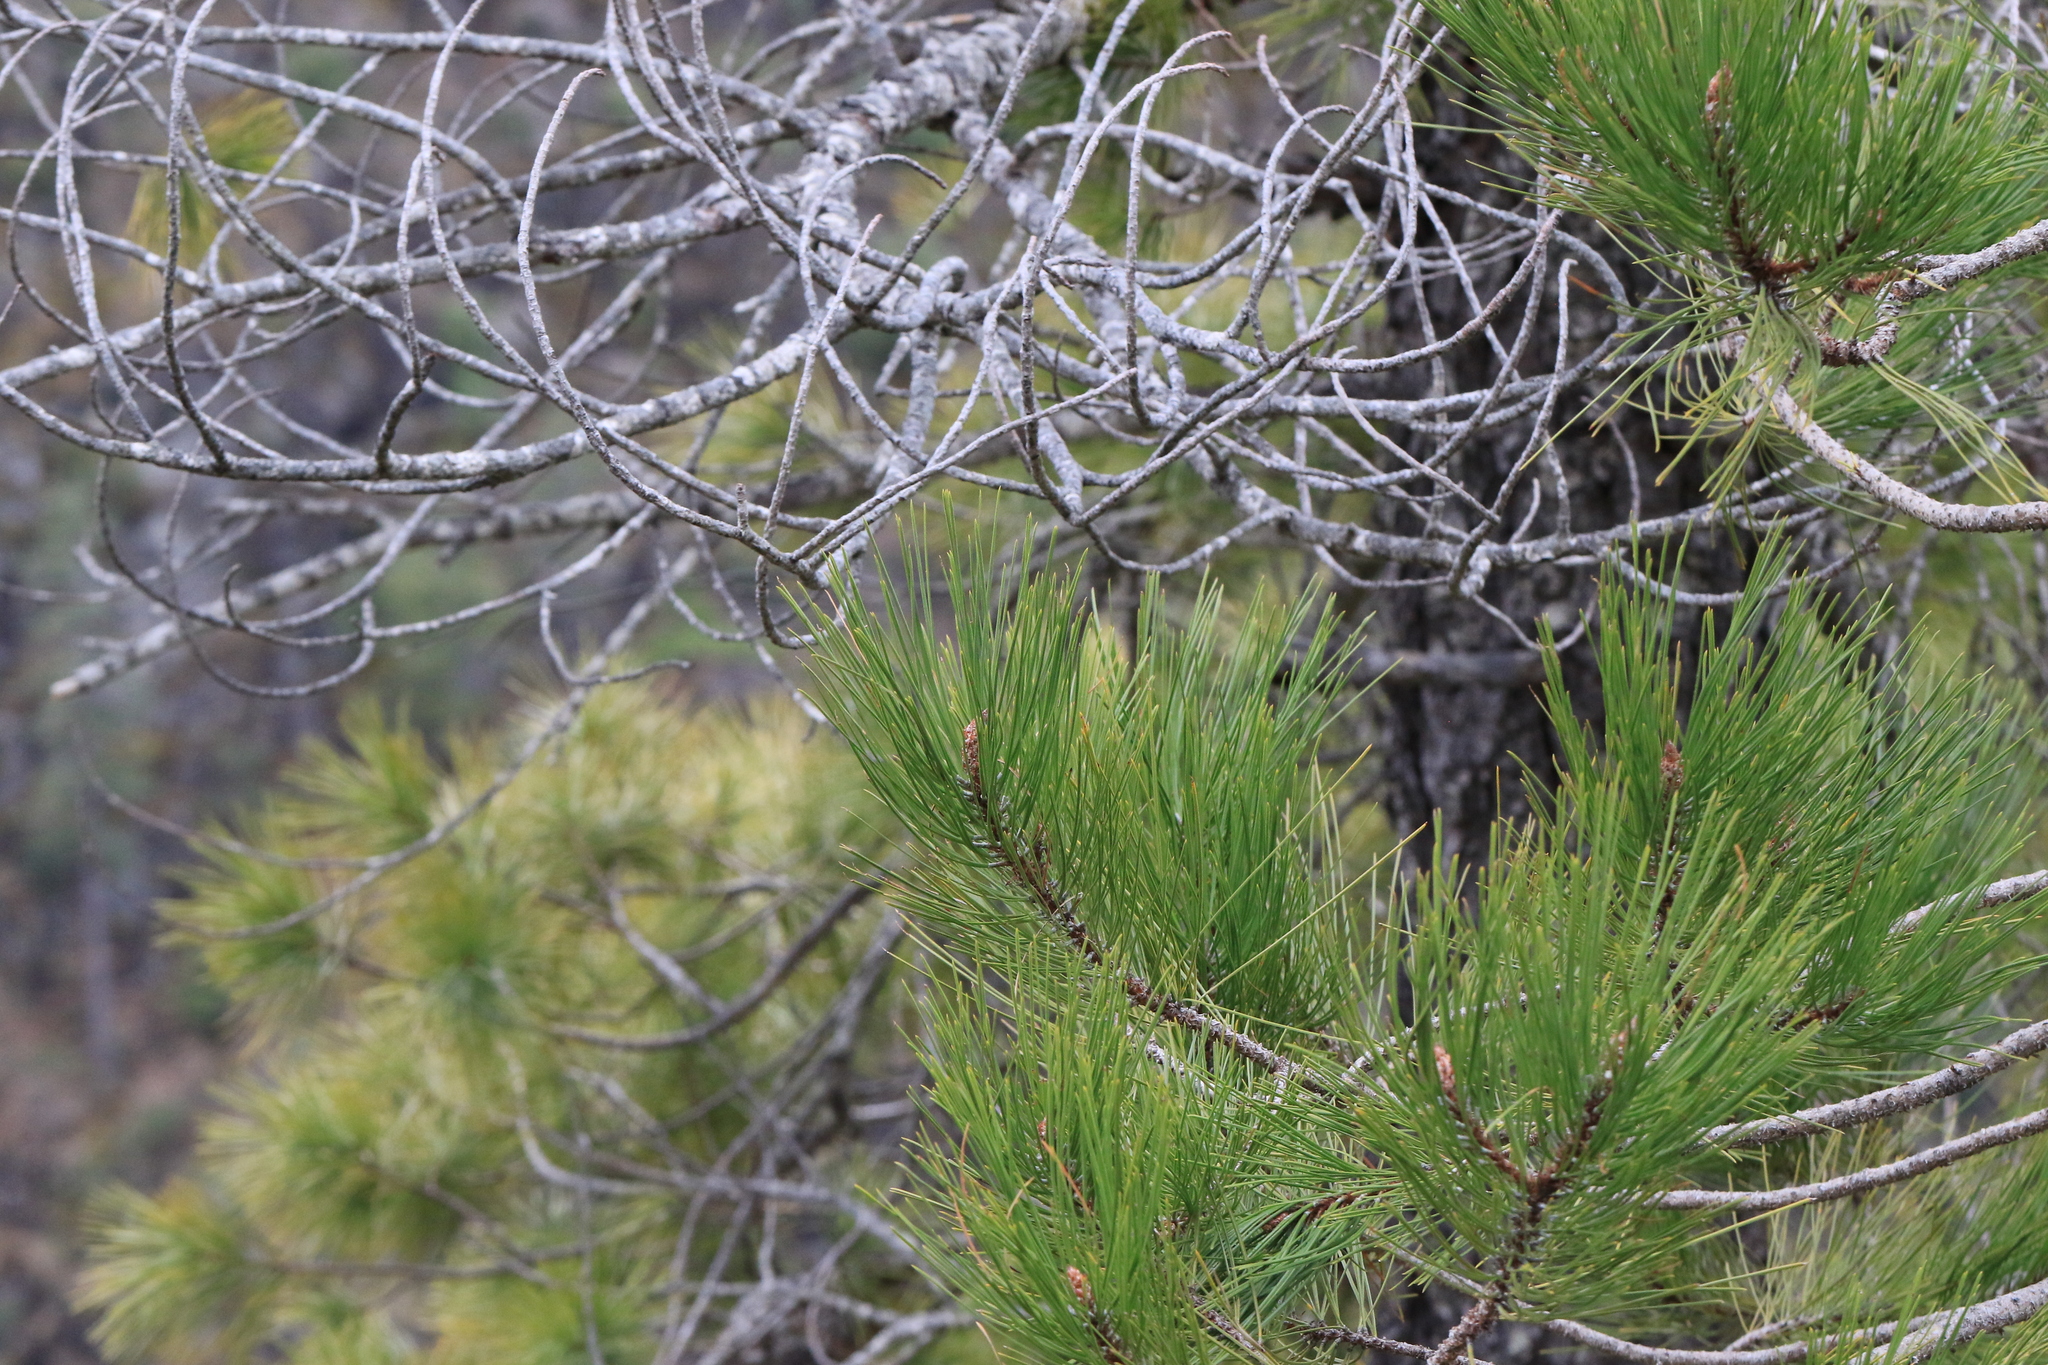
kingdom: Plantae
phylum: Tracheophyta
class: Pinopsida
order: Pinales
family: Pinaceae
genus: Pinus
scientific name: Pinus attenuata
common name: Knobcone pine
